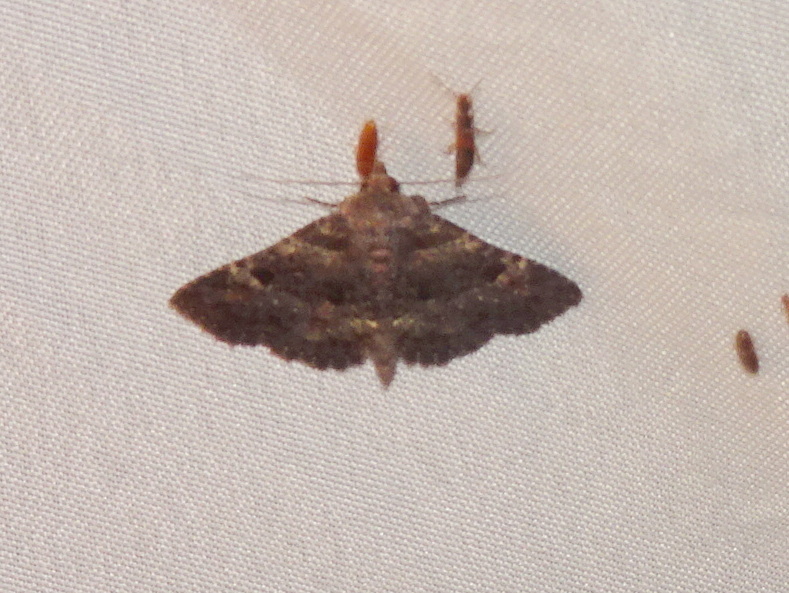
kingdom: Animalia
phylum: Arthropoda
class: Insecta
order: Lepidoptera
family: Erebidae
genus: Metalectra
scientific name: Metalectra discalis
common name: Common fungus moth
